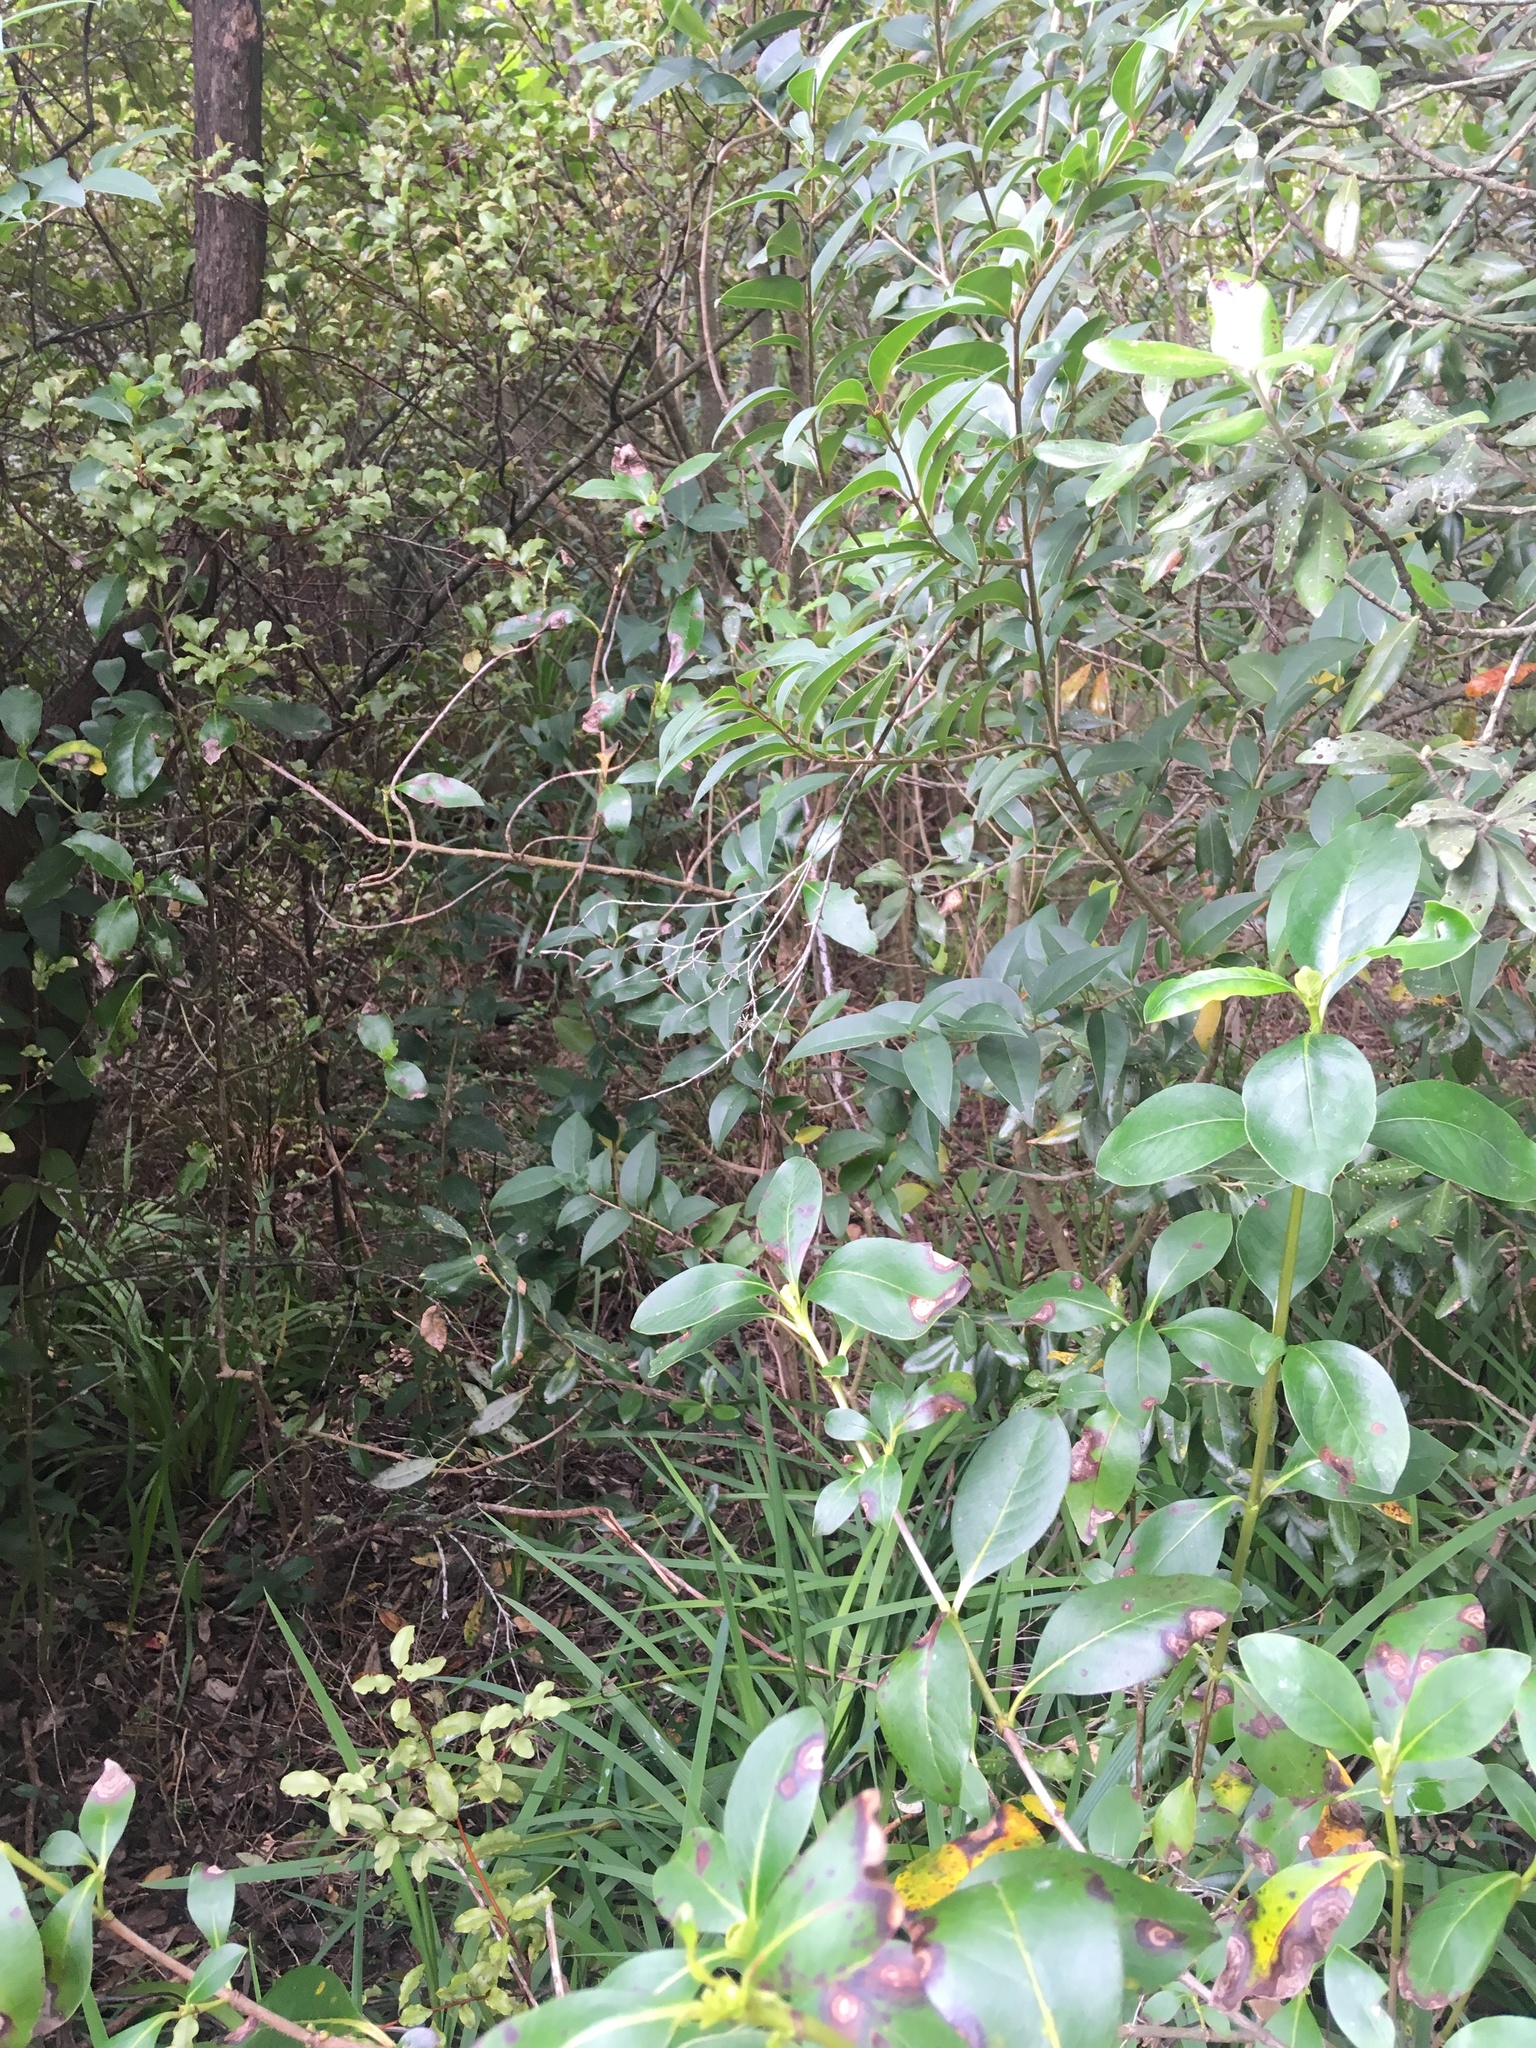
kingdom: Plantae
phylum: Tracheophyta
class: Magnoliopsida
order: Ericales
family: Primulaceae
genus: Myrsine
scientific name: Myrsine australis
